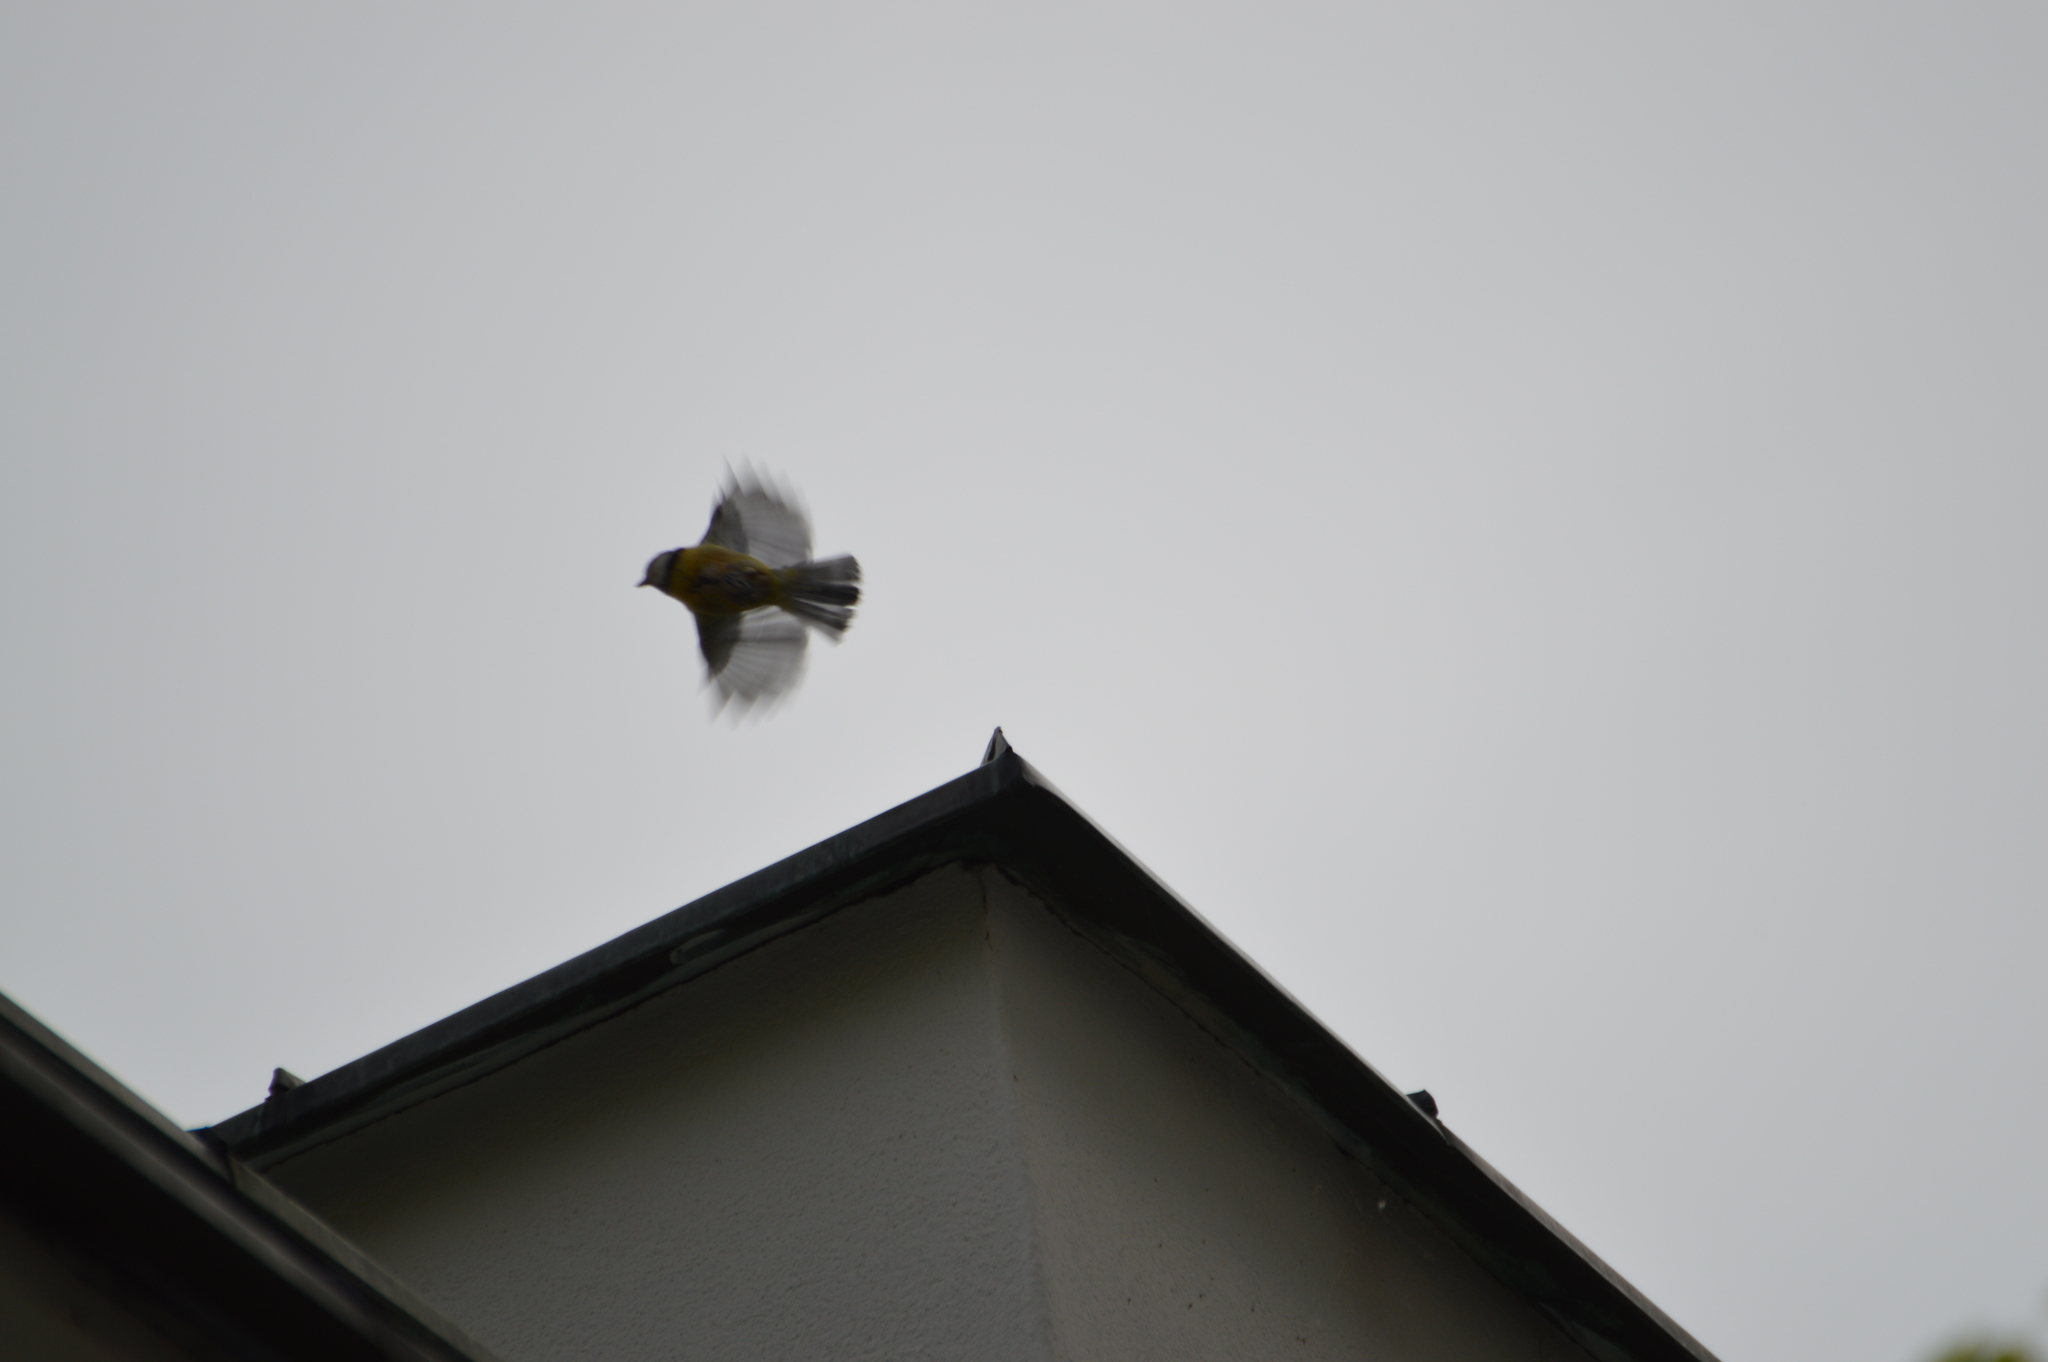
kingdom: Animalia
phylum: Chordata
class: Aves
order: Passeriformes
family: Paridae
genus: Cyanistes
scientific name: Cyanistes caeruleus
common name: Eurasian blue tit
